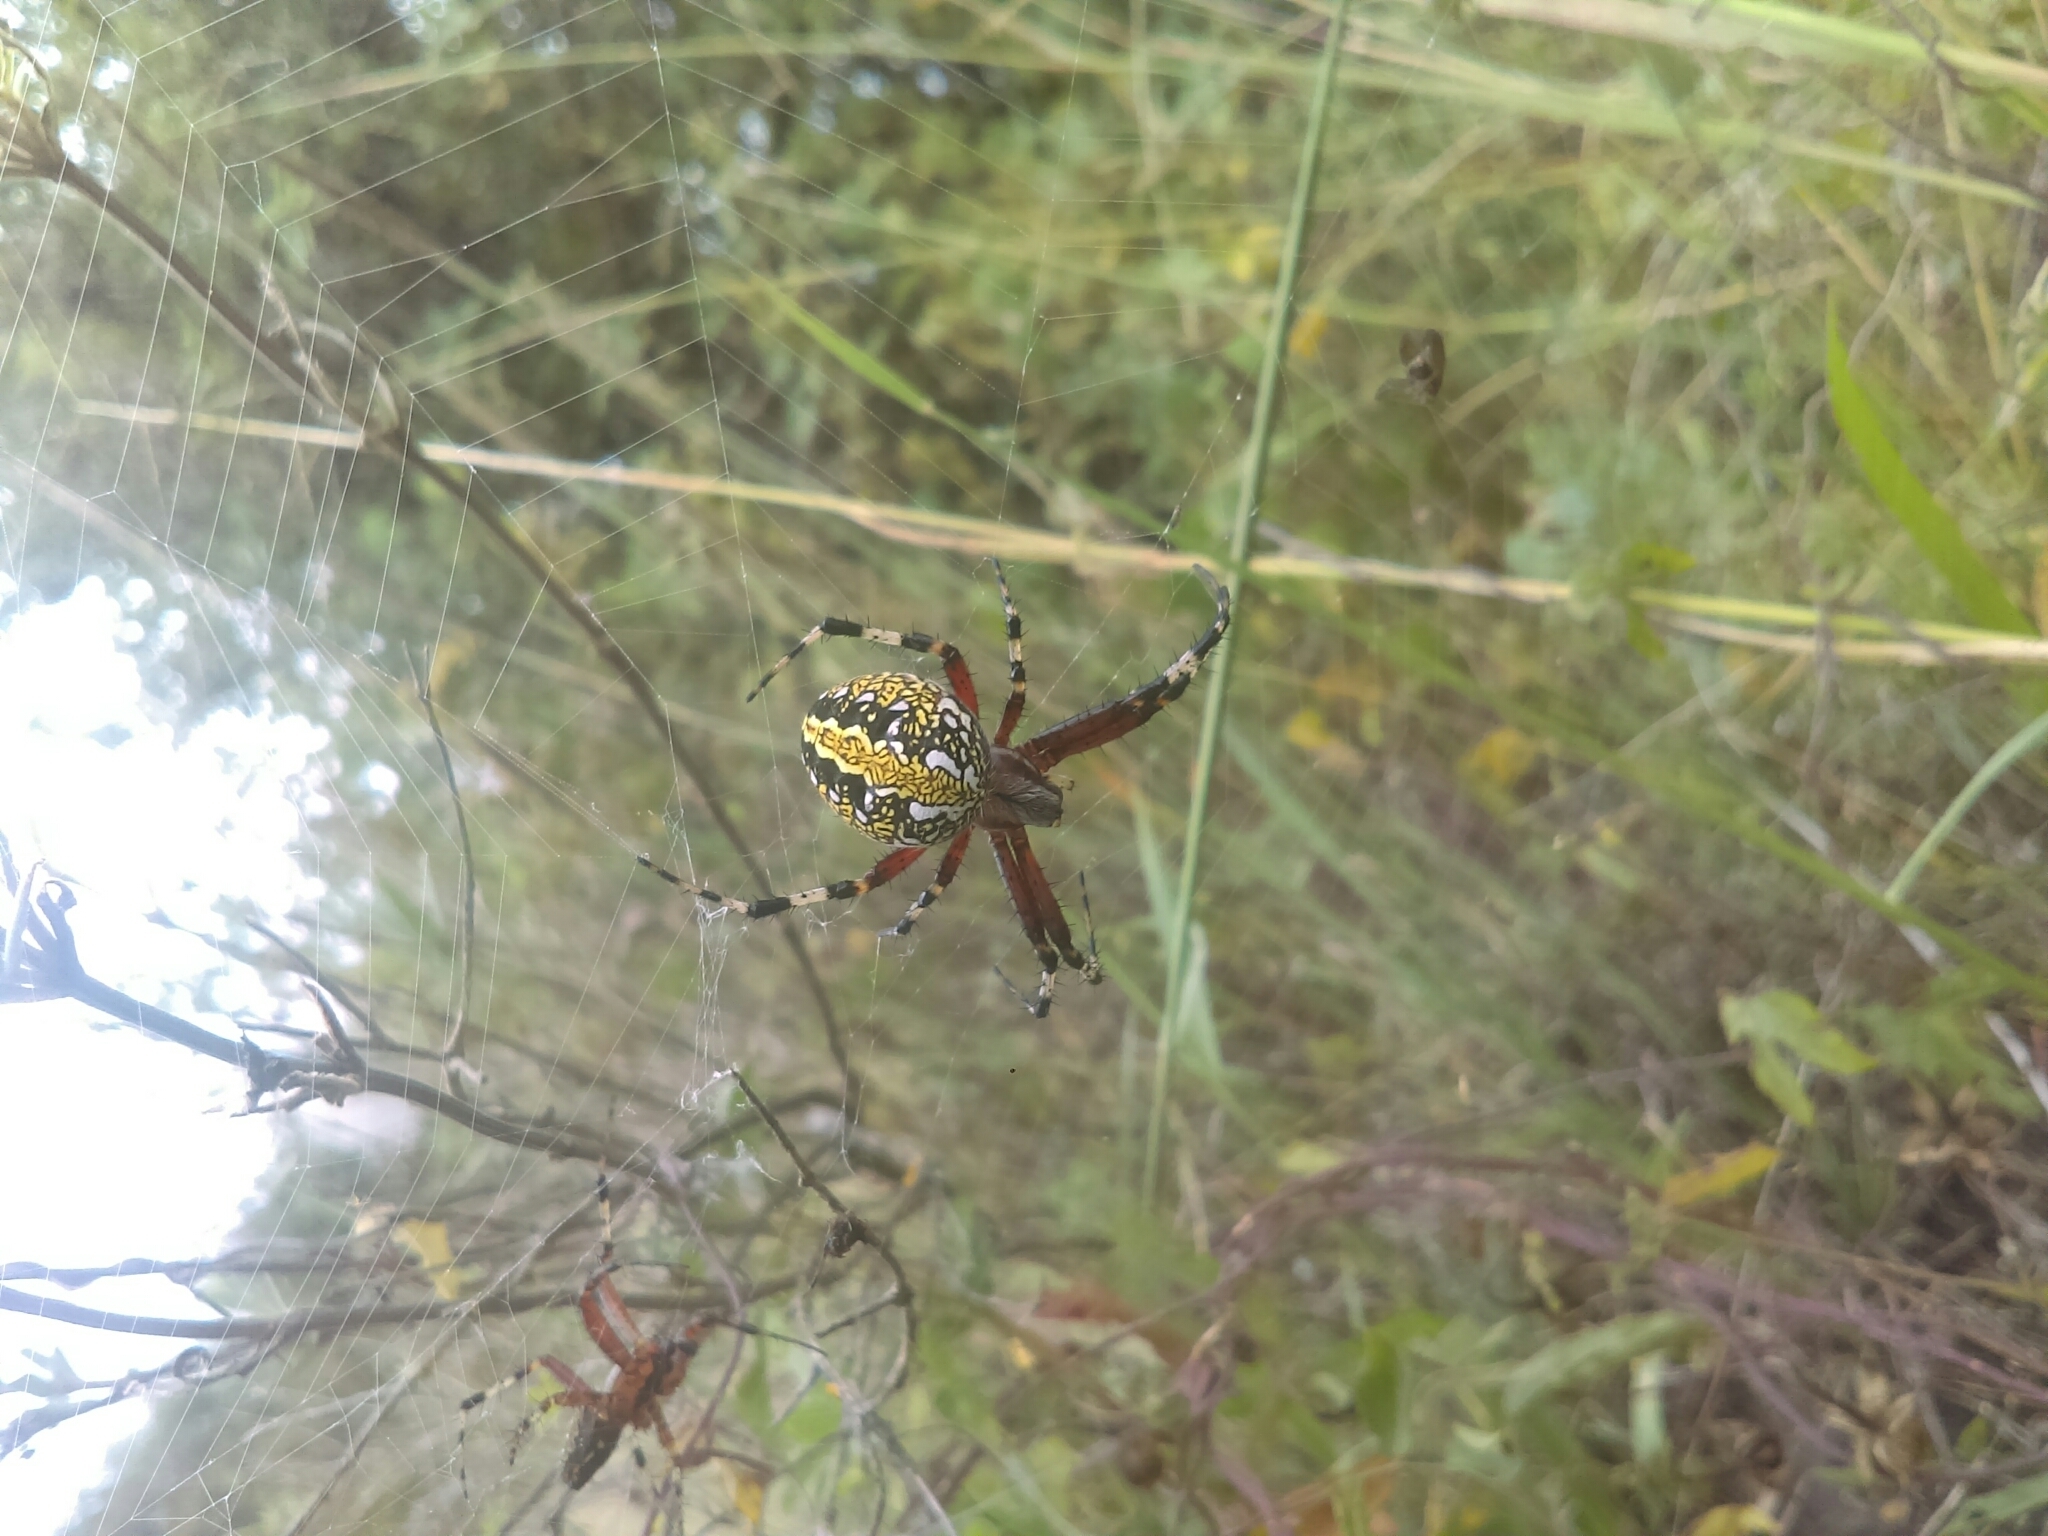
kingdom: Animalia
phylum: Arthropoda
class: Arachnida
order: Araneae
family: Araneidae
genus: Neoscona
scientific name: Neoscona oaxacensis
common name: Orb weavers
